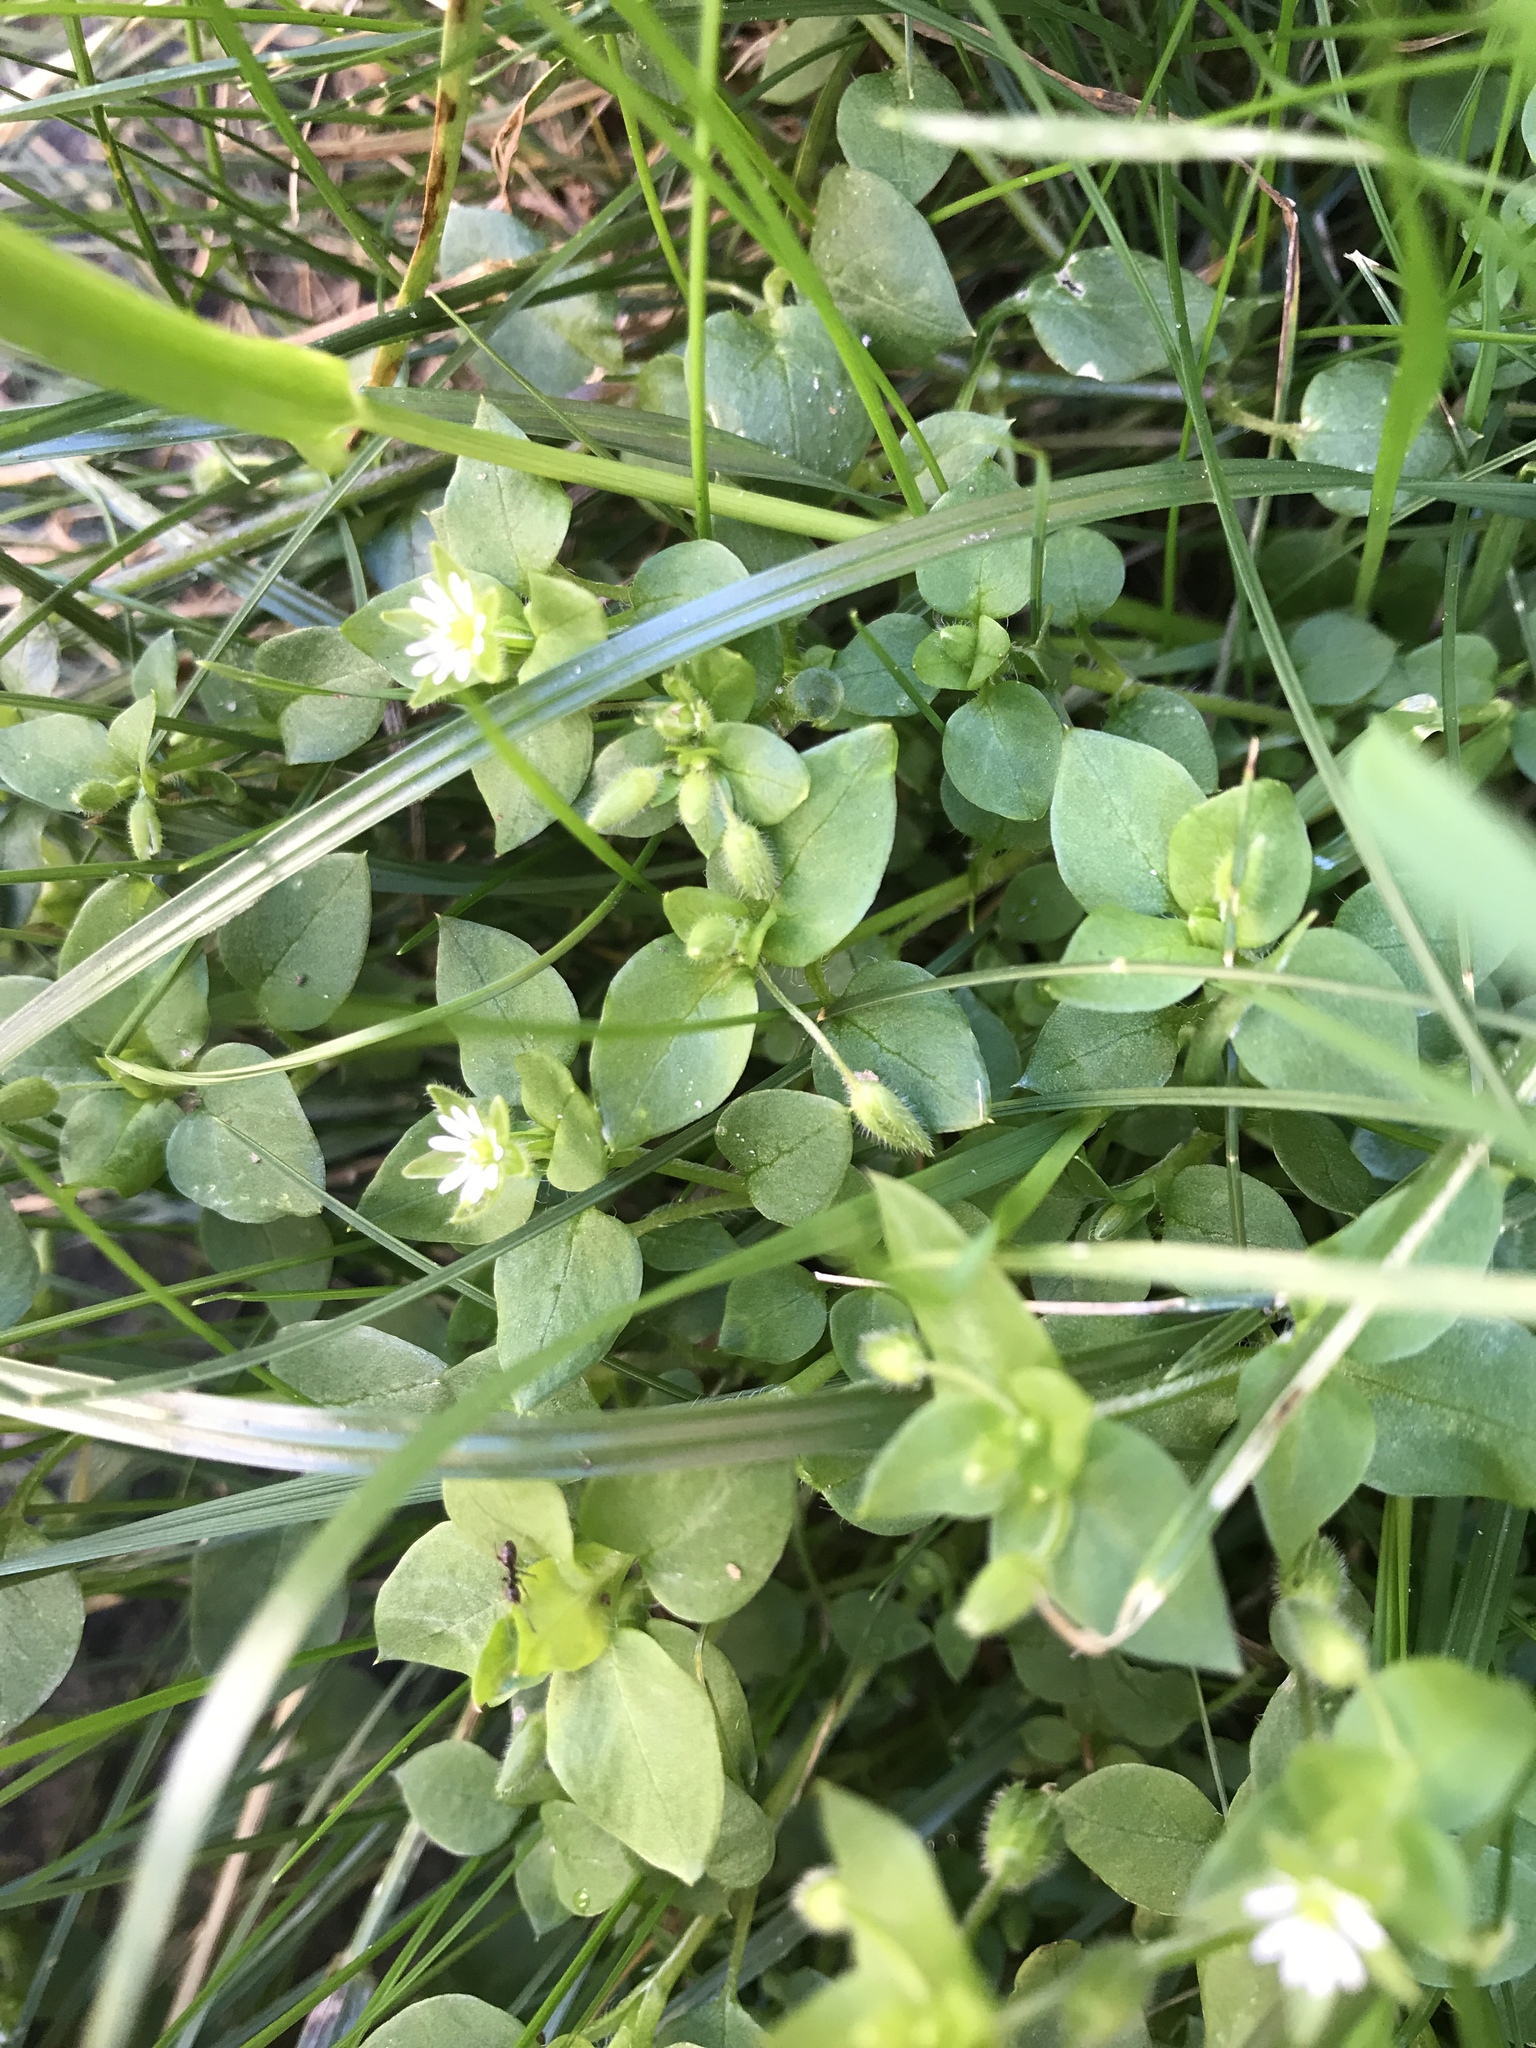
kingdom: Plantae
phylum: Tracheophyta
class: Magnoliopsida
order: Caryophyllales
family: Caryophyllaceae
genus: Stellaria
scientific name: Stellaria media
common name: Common chickweed
